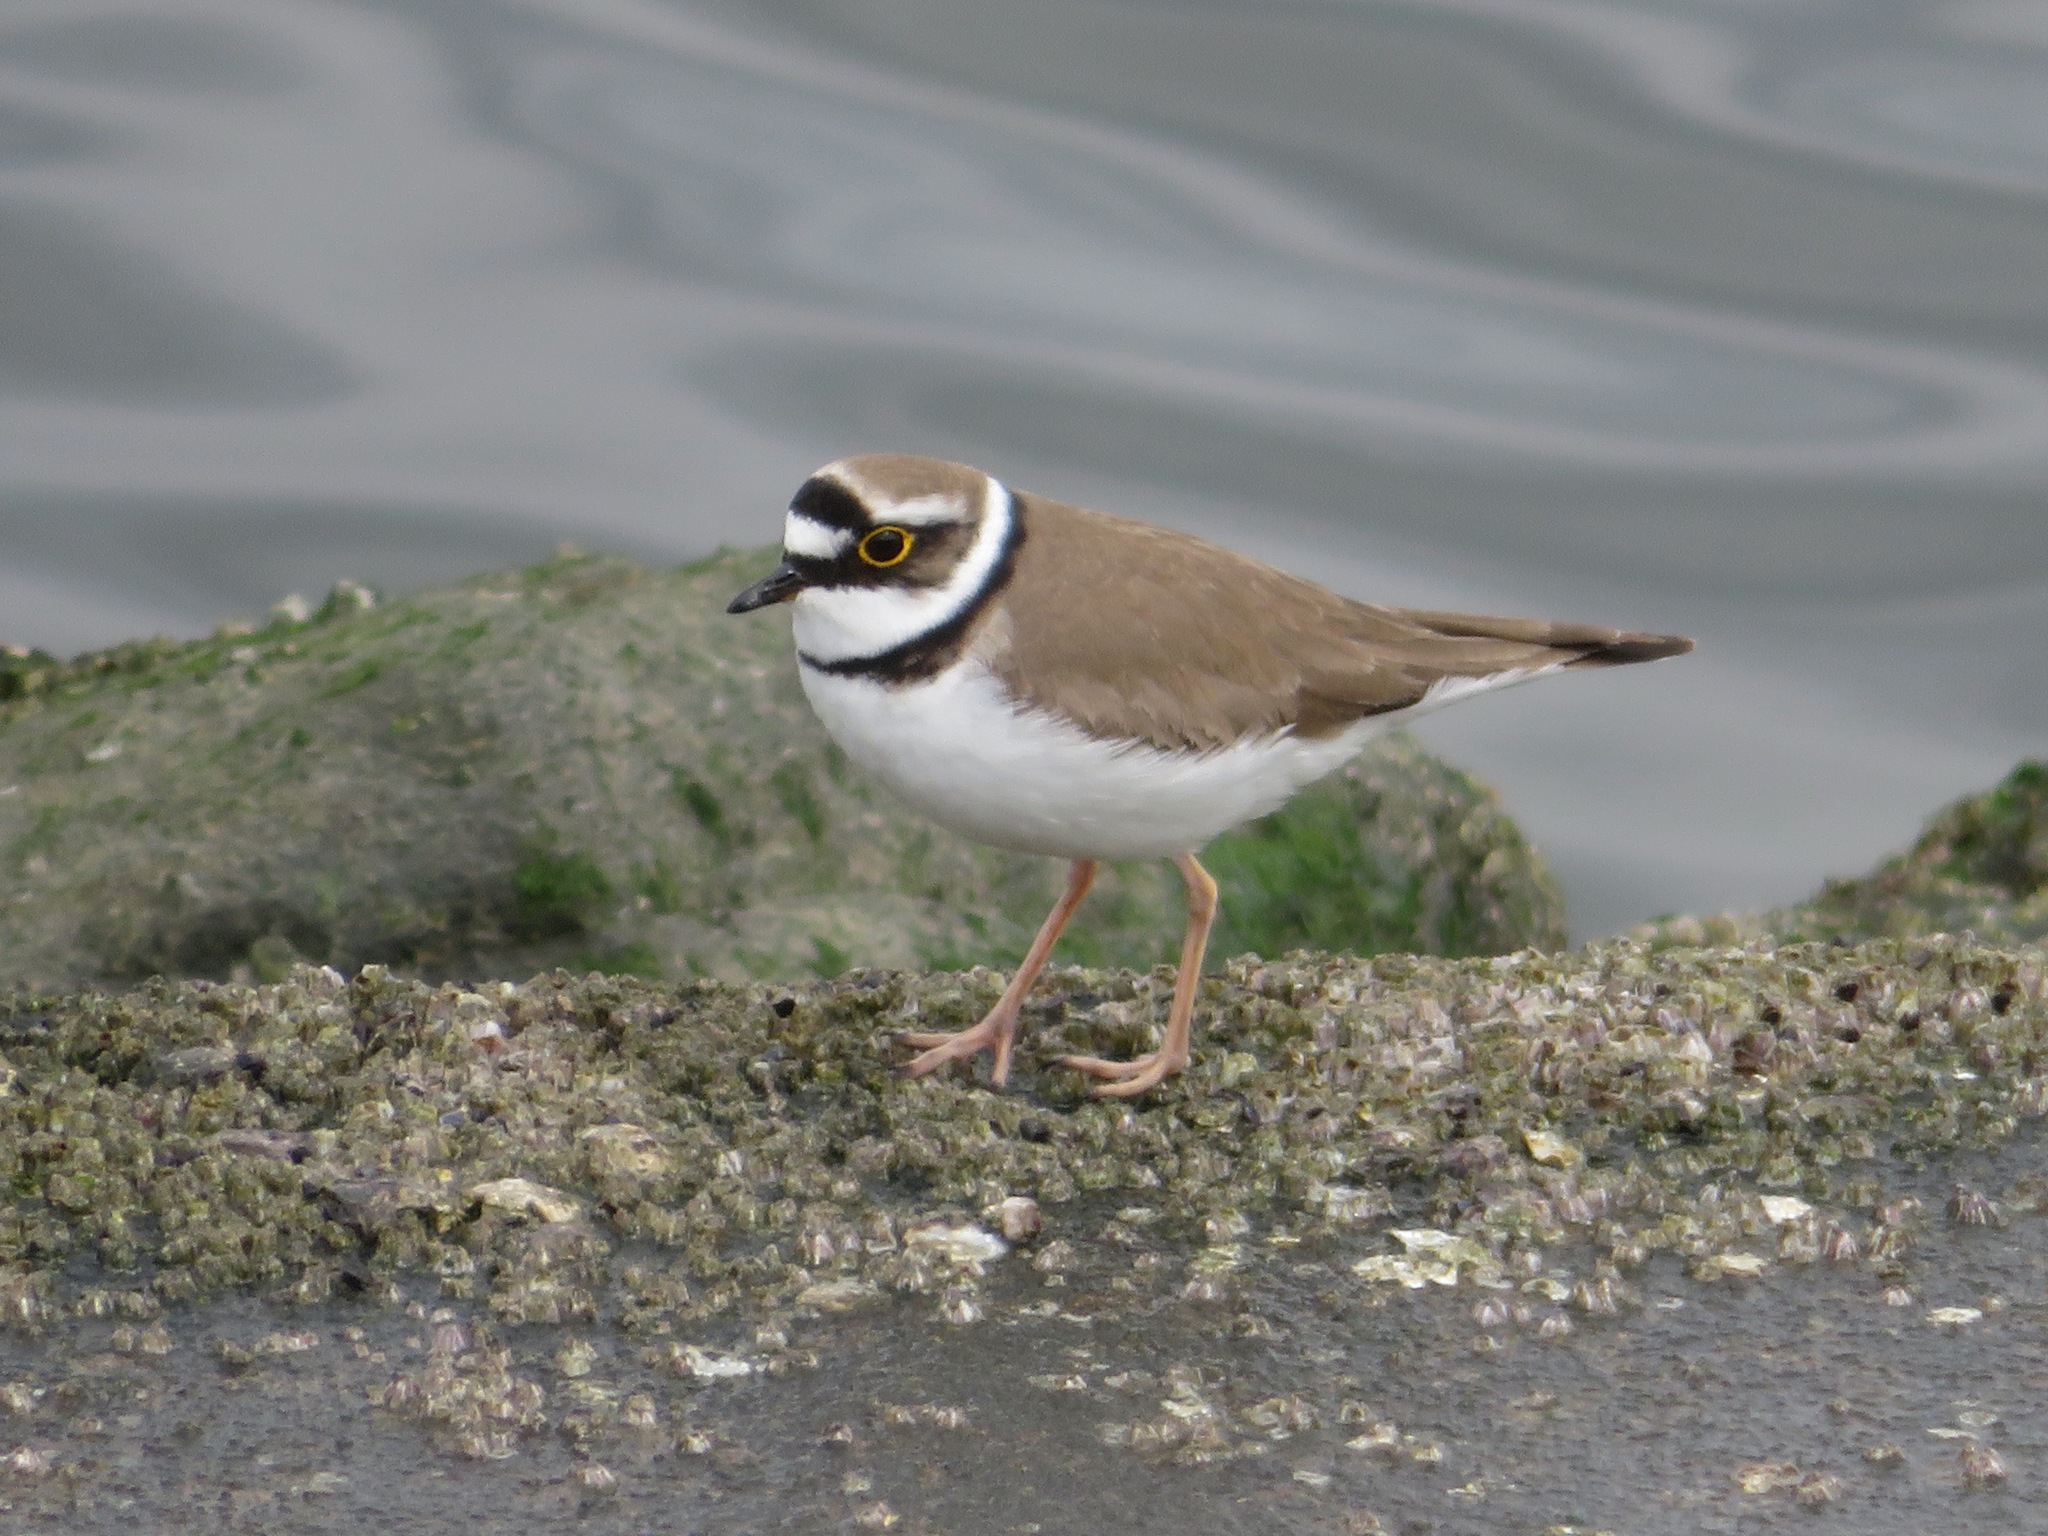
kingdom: Animalia
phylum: Chordata
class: Aves
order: Charadriiformes
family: Charadriidae
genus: Charadrius
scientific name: Charadrius dubius
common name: Little ringed plover
